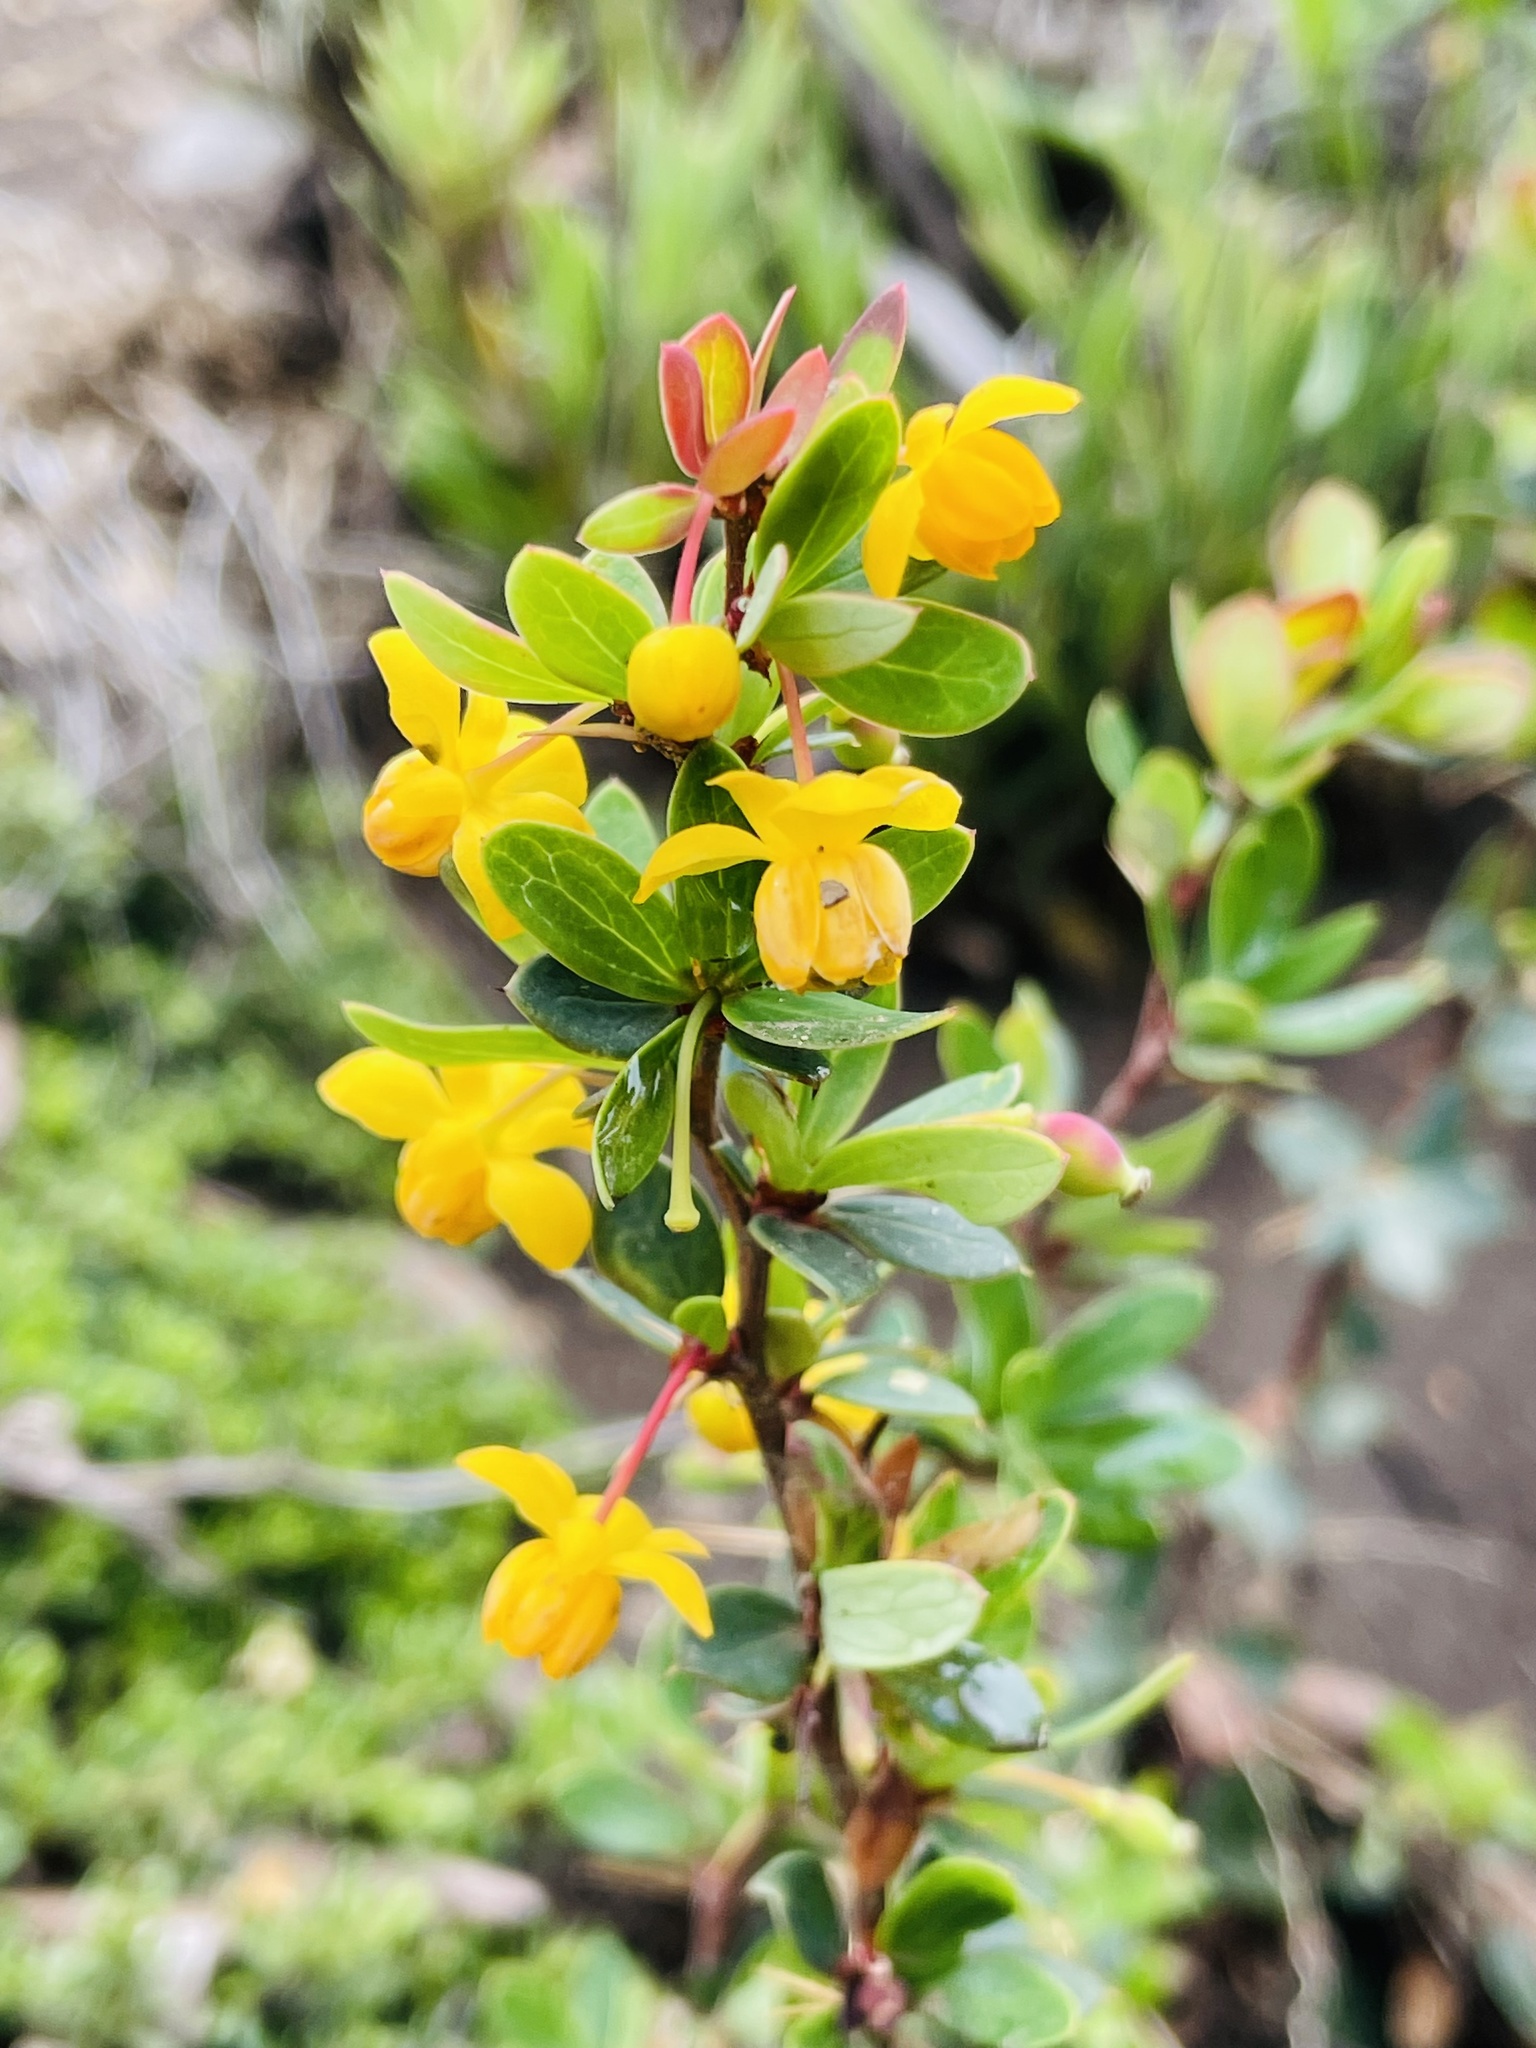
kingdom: Plantae
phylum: Tracheophyta
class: Magnoliopsida
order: Ranunculales
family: Berberidaceae
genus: Berberis
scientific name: Berberis microphylla
